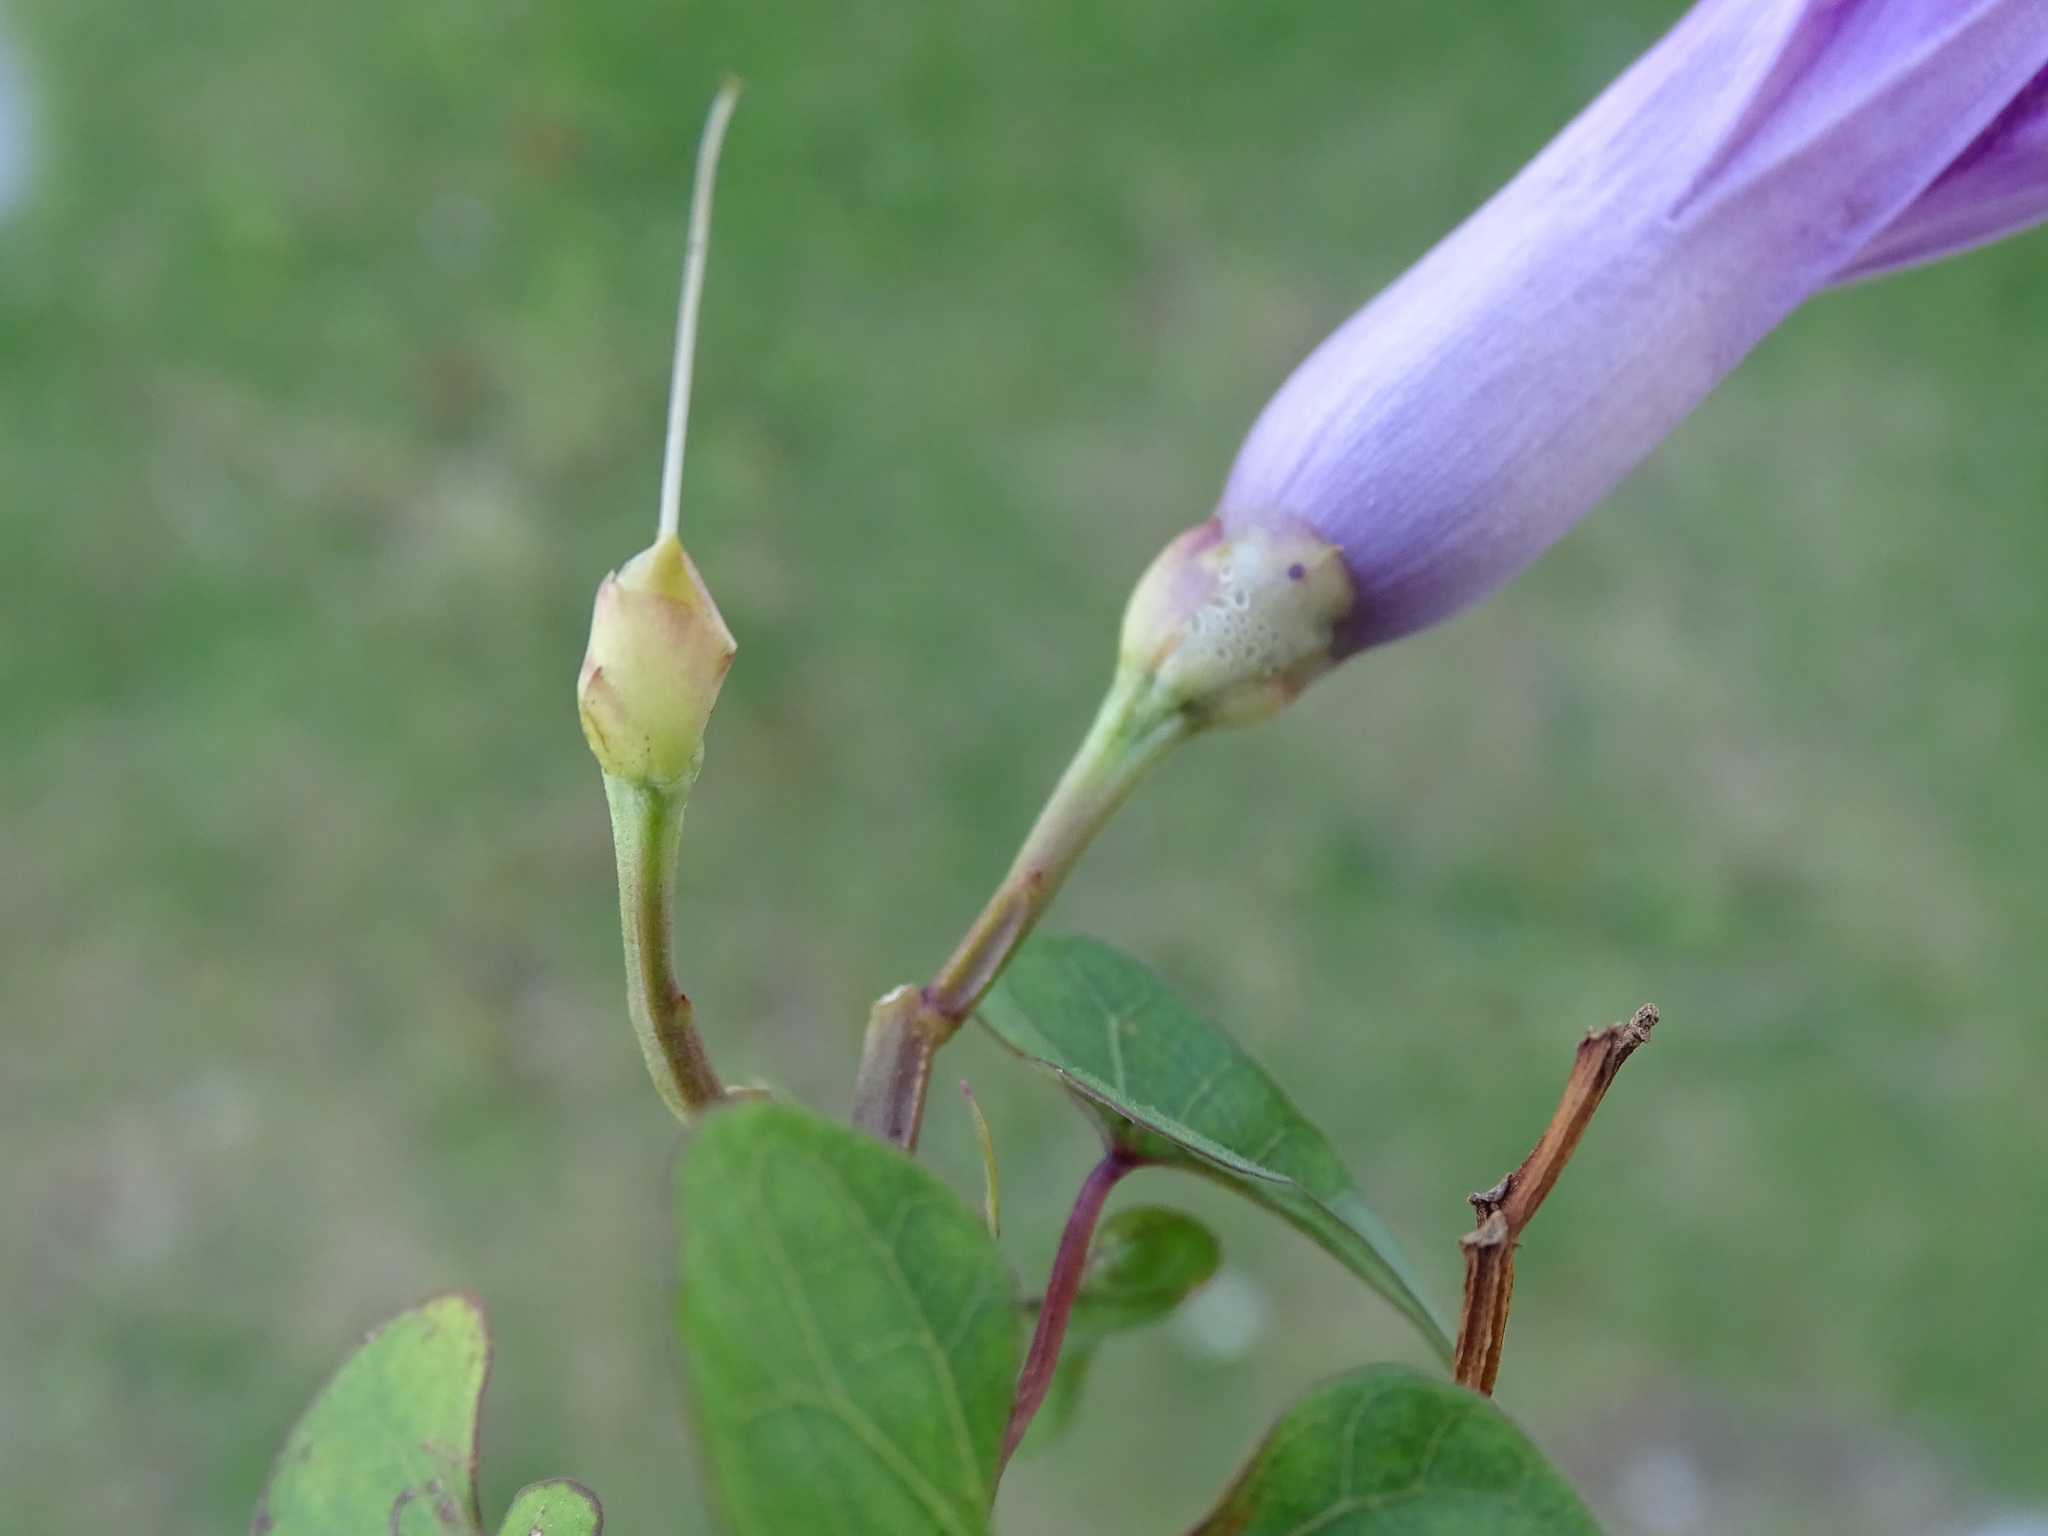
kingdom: Plantae
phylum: Tracheophyta
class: Magnoliopsida
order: Solanales
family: Convolvulaceae
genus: Ipomoea
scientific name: Ipomoea splendor-sylvae
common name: Morning glory
